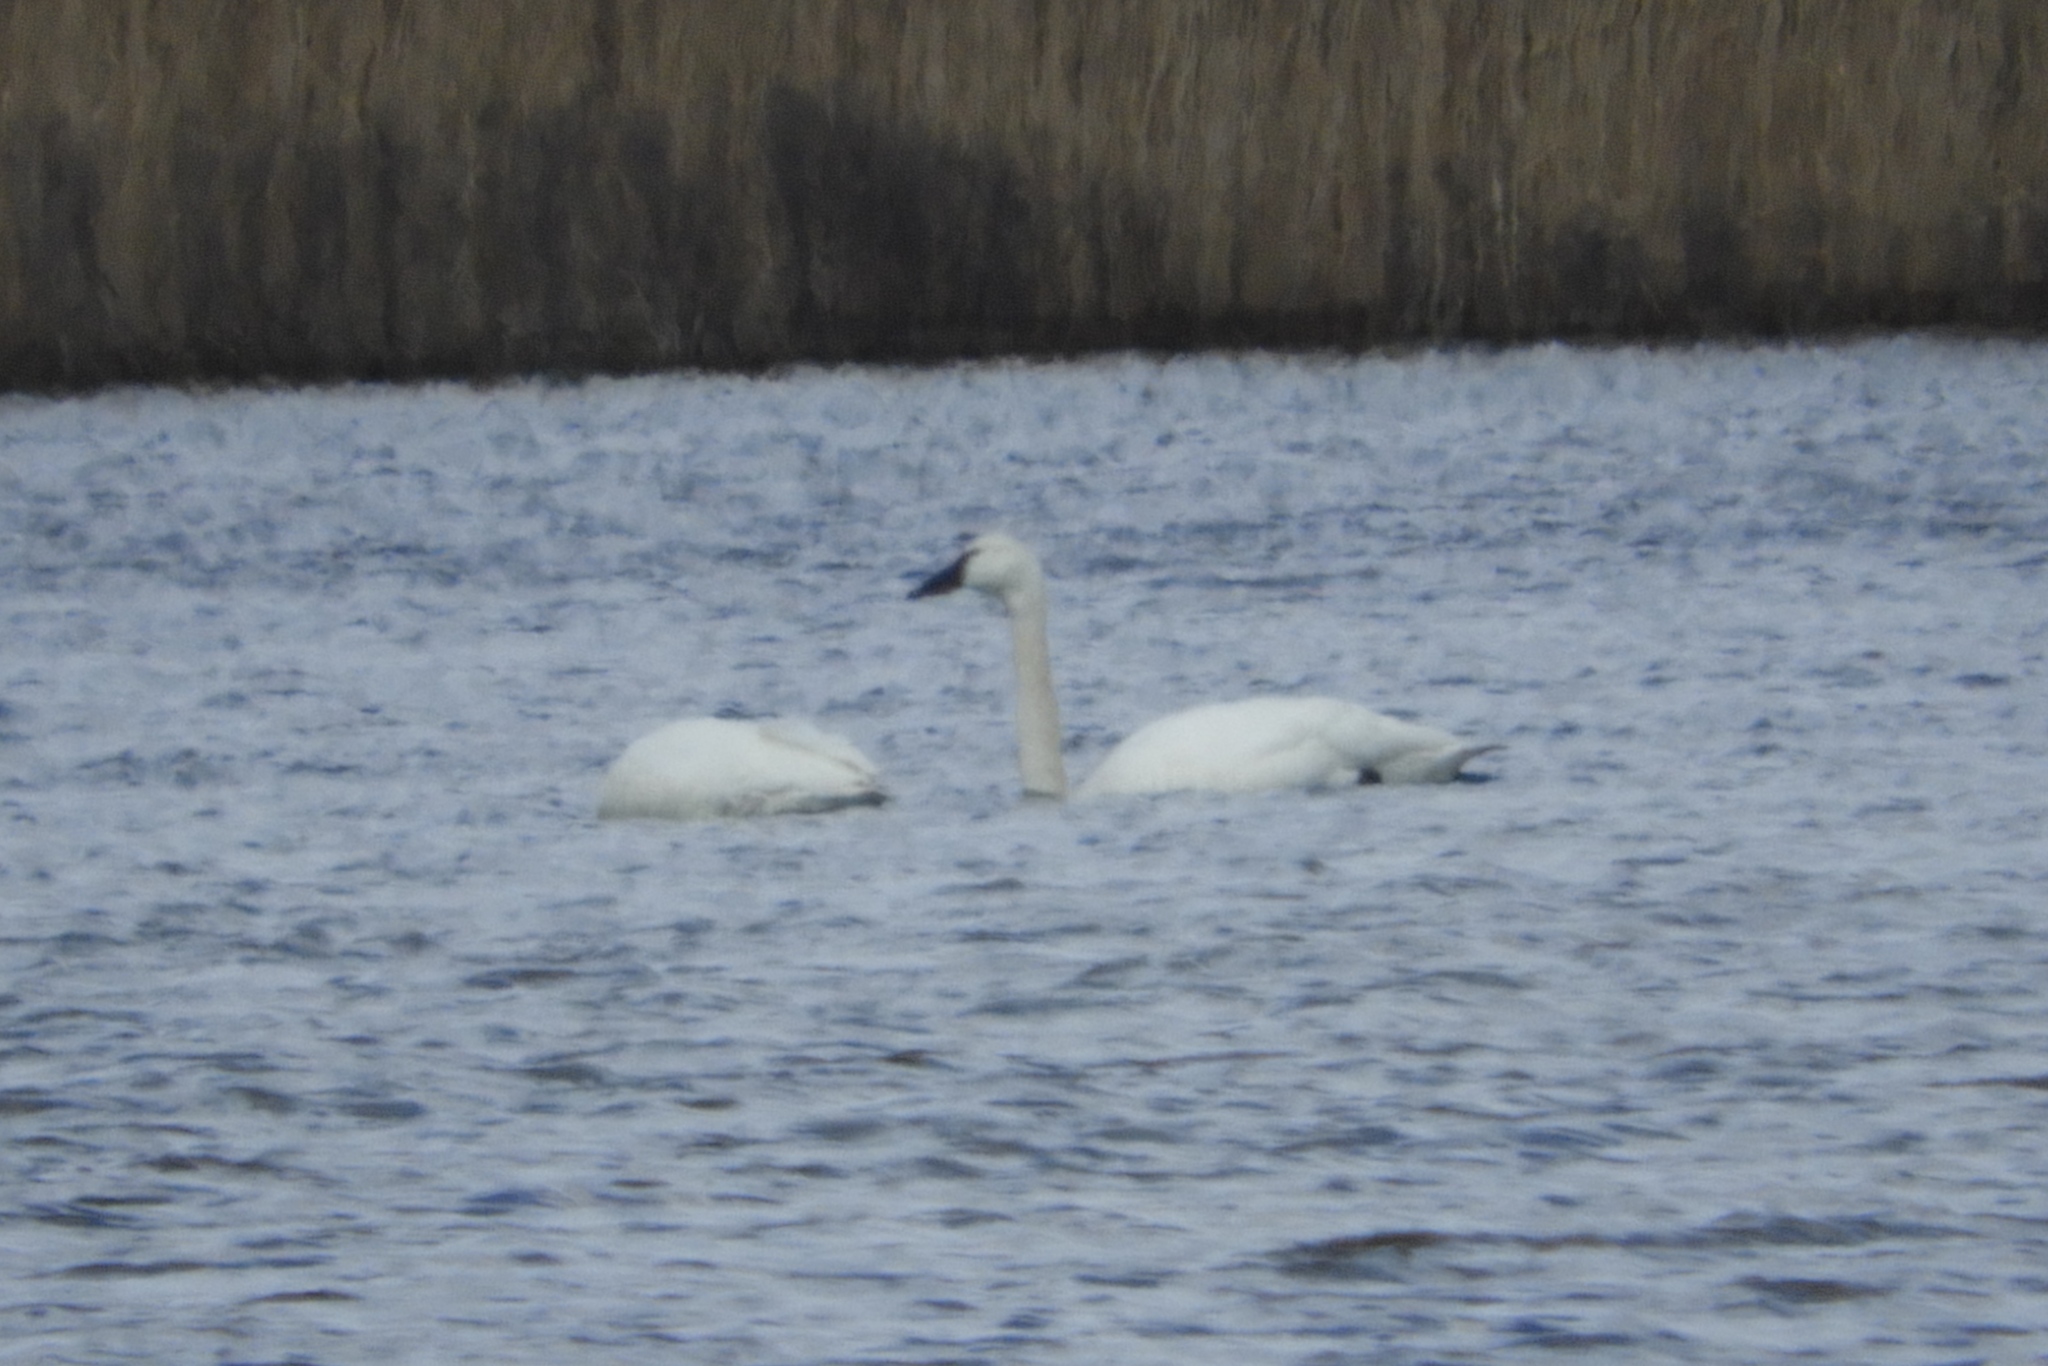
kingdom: Animalia
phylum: Chordata
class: Aves
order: Anseriformes
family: Anatidae
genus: Cygnus
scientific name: Cygnus buccinator
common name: Trumpeter swan
